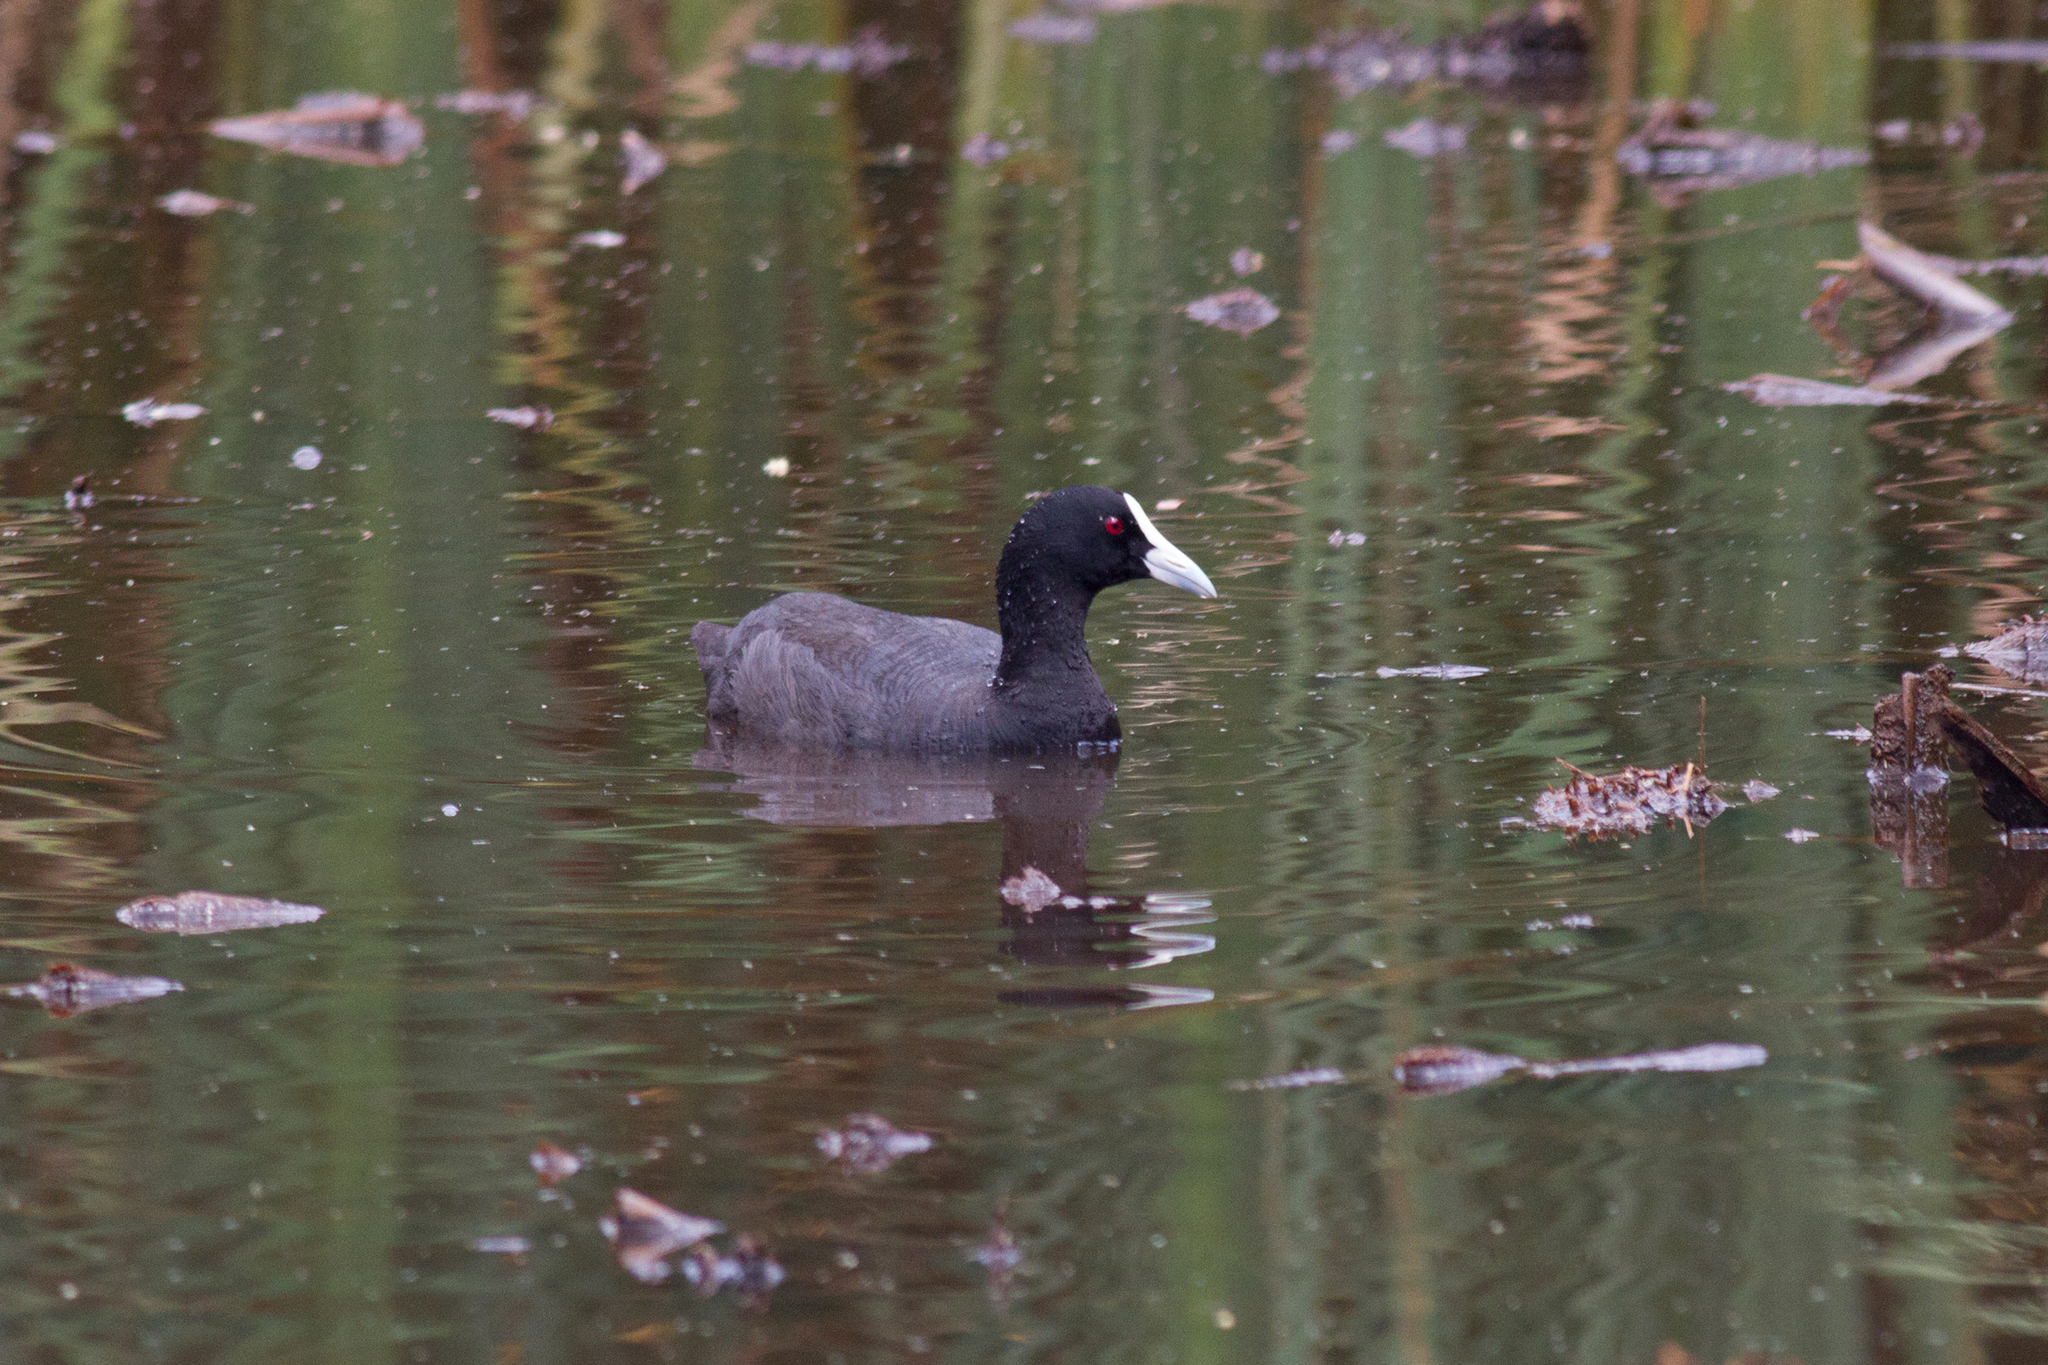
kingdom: Animalia
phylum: Chordata
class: Aves
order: Gruiformes
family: Rallidae
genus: Fulica
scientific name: Fulica atra
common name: Eurasian coot
